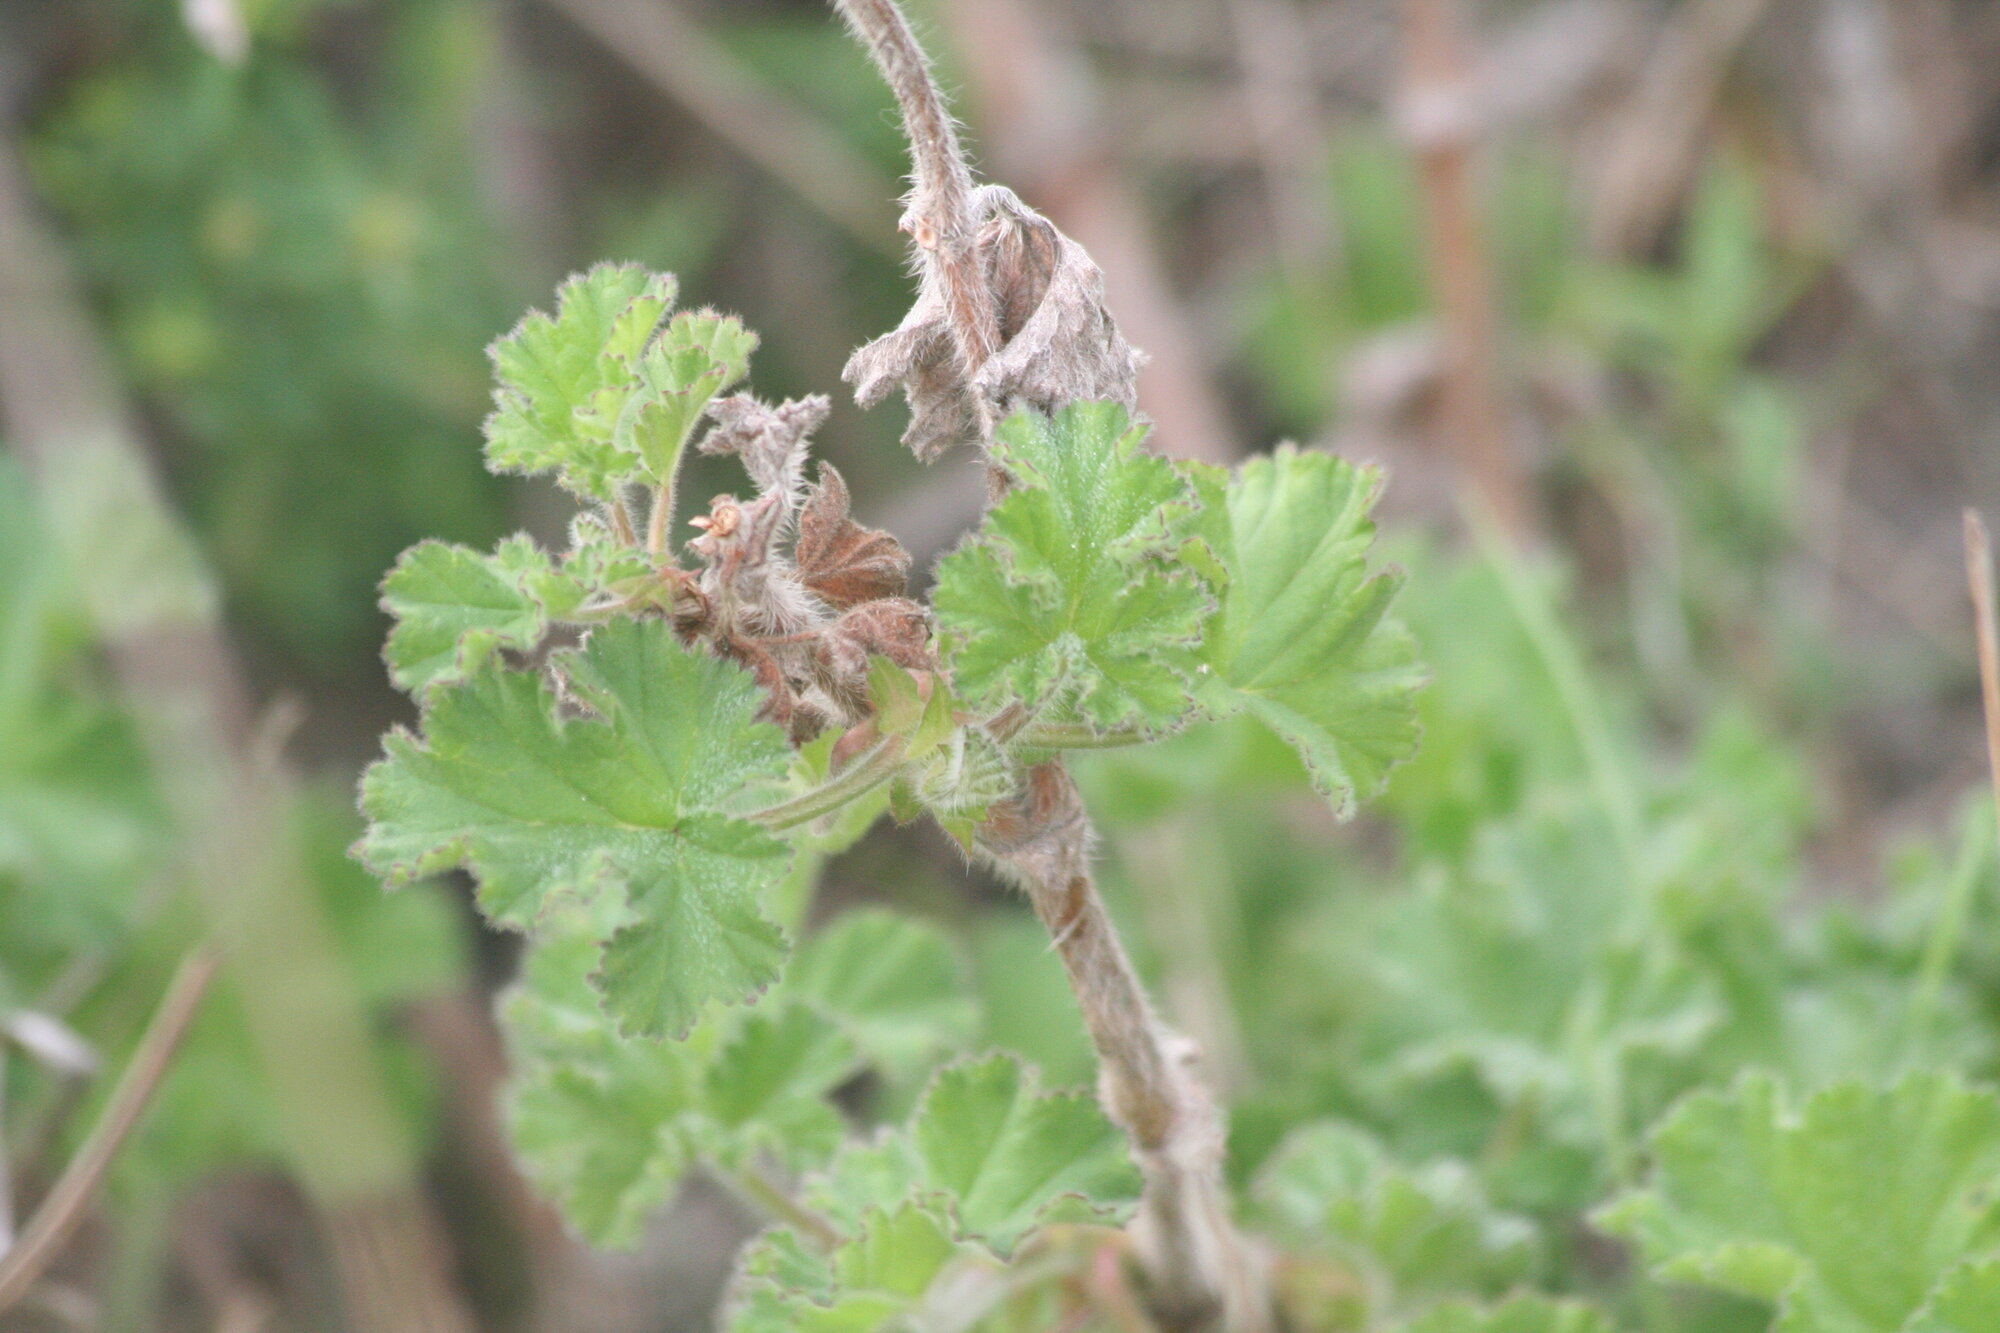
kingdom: Plantae
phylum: Tracheophyta
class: Magnoliopsida
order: Geraniales
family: Geraniaceae
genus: Pelargonium
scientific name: Pelargonium capitatum
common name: Rose scented geranium
